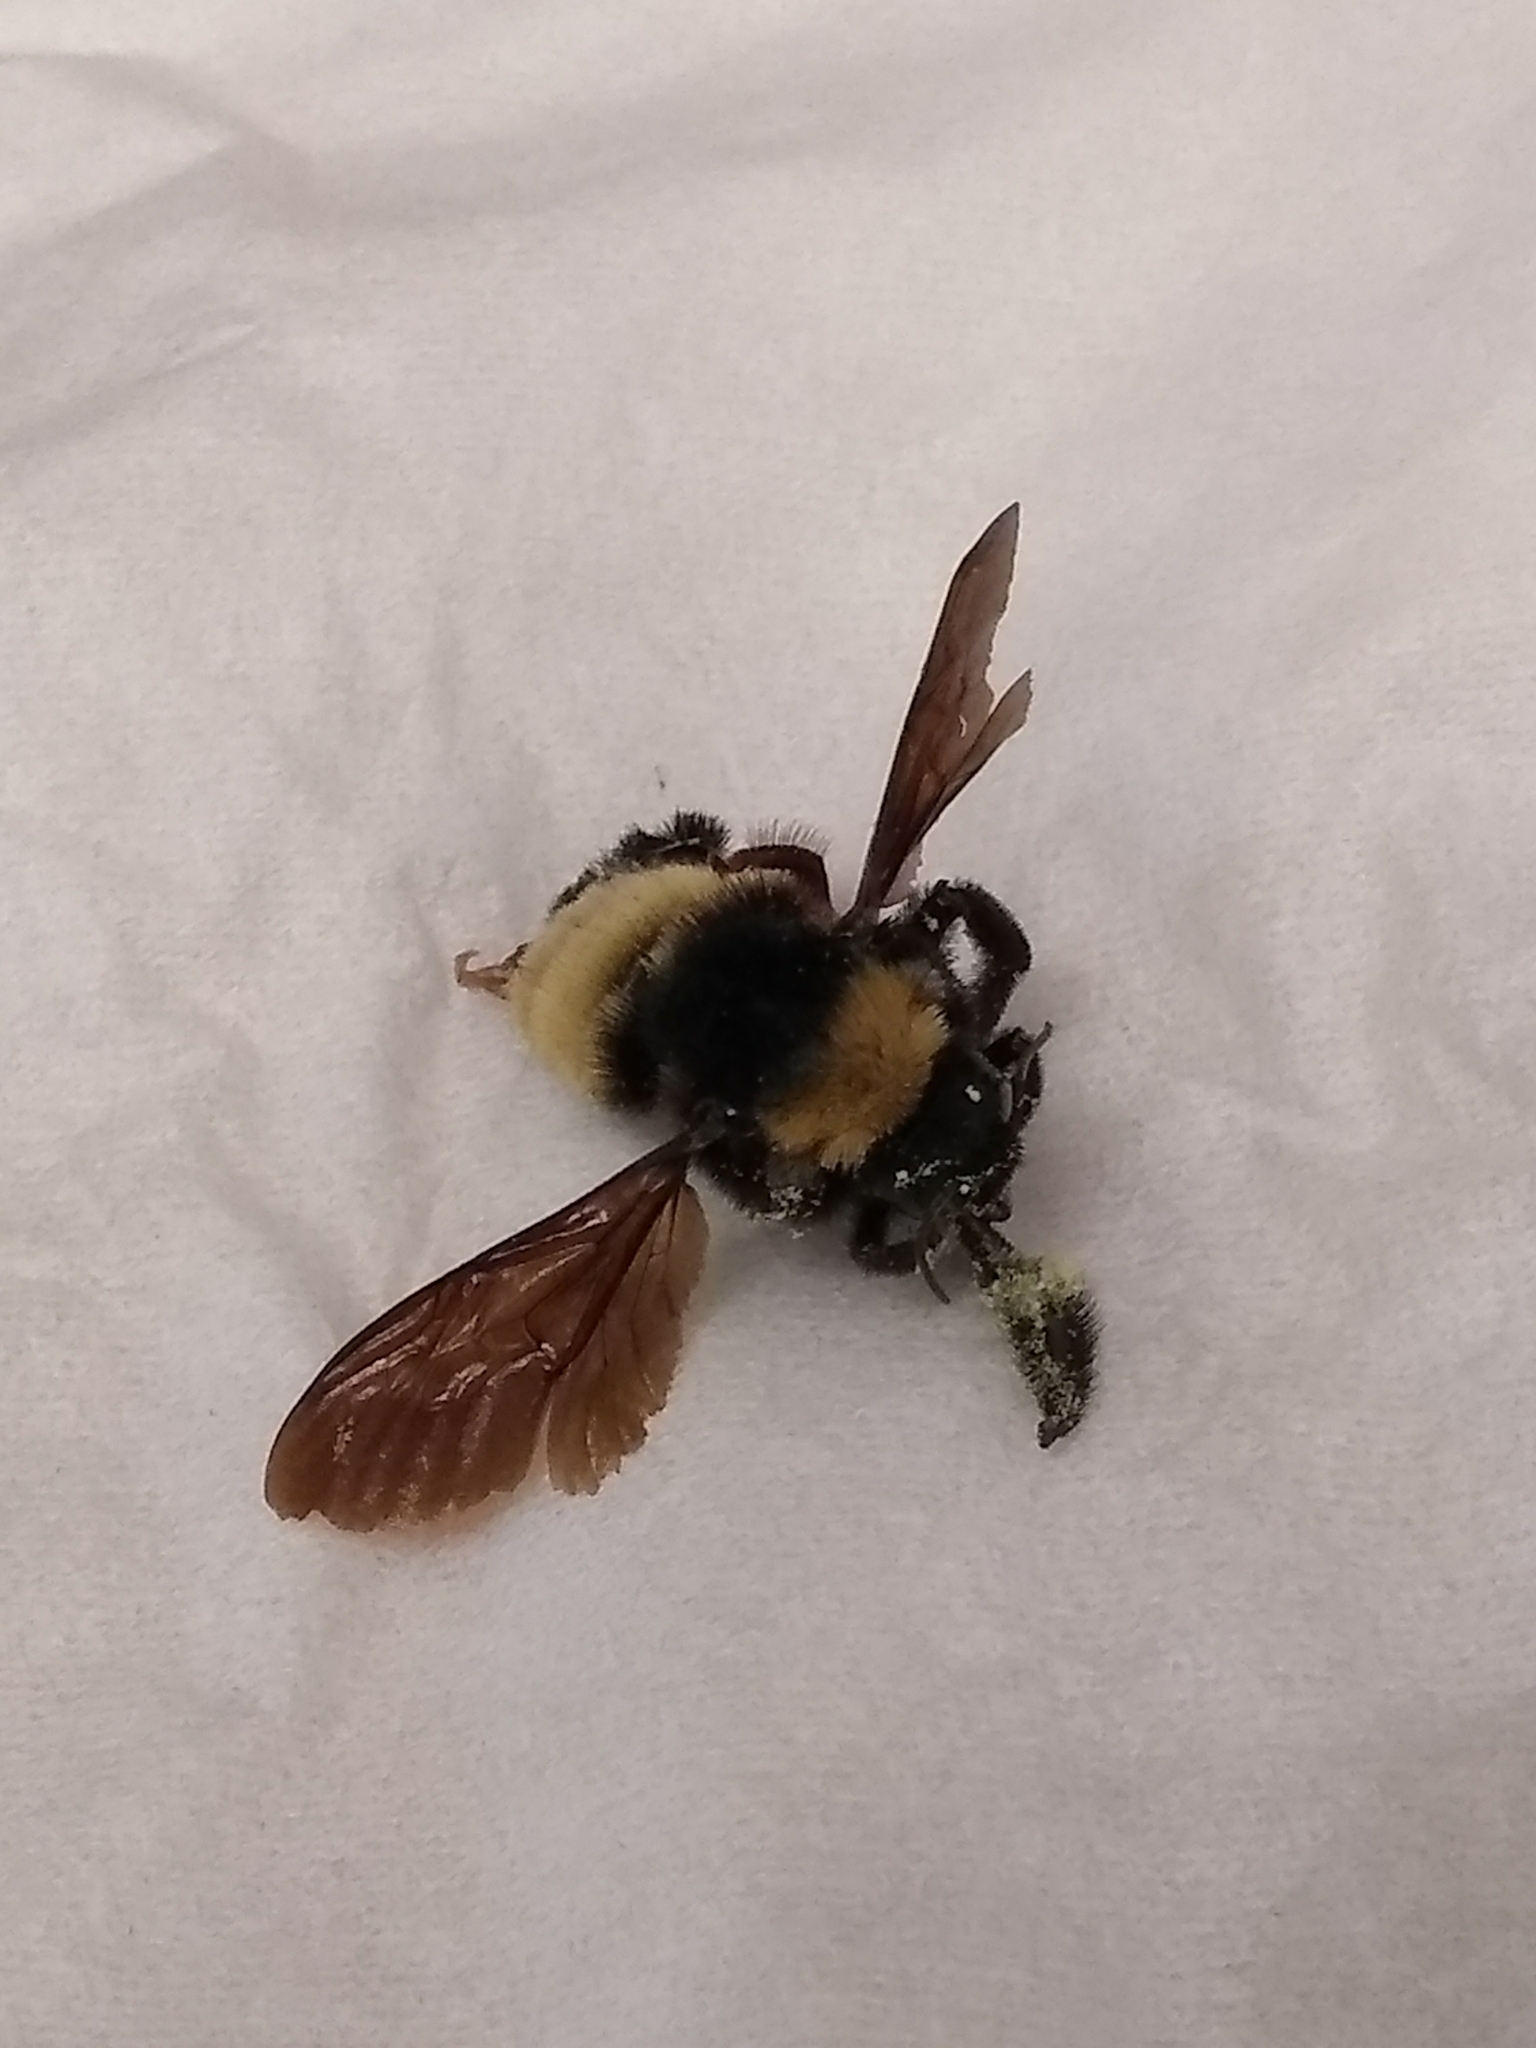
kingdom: Animalia
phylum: Arthropoda
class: Insecta
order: Hymenoptera
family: Apidae
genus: Bombus
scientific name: Bombus pensylvanicus
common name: Bumble bee
